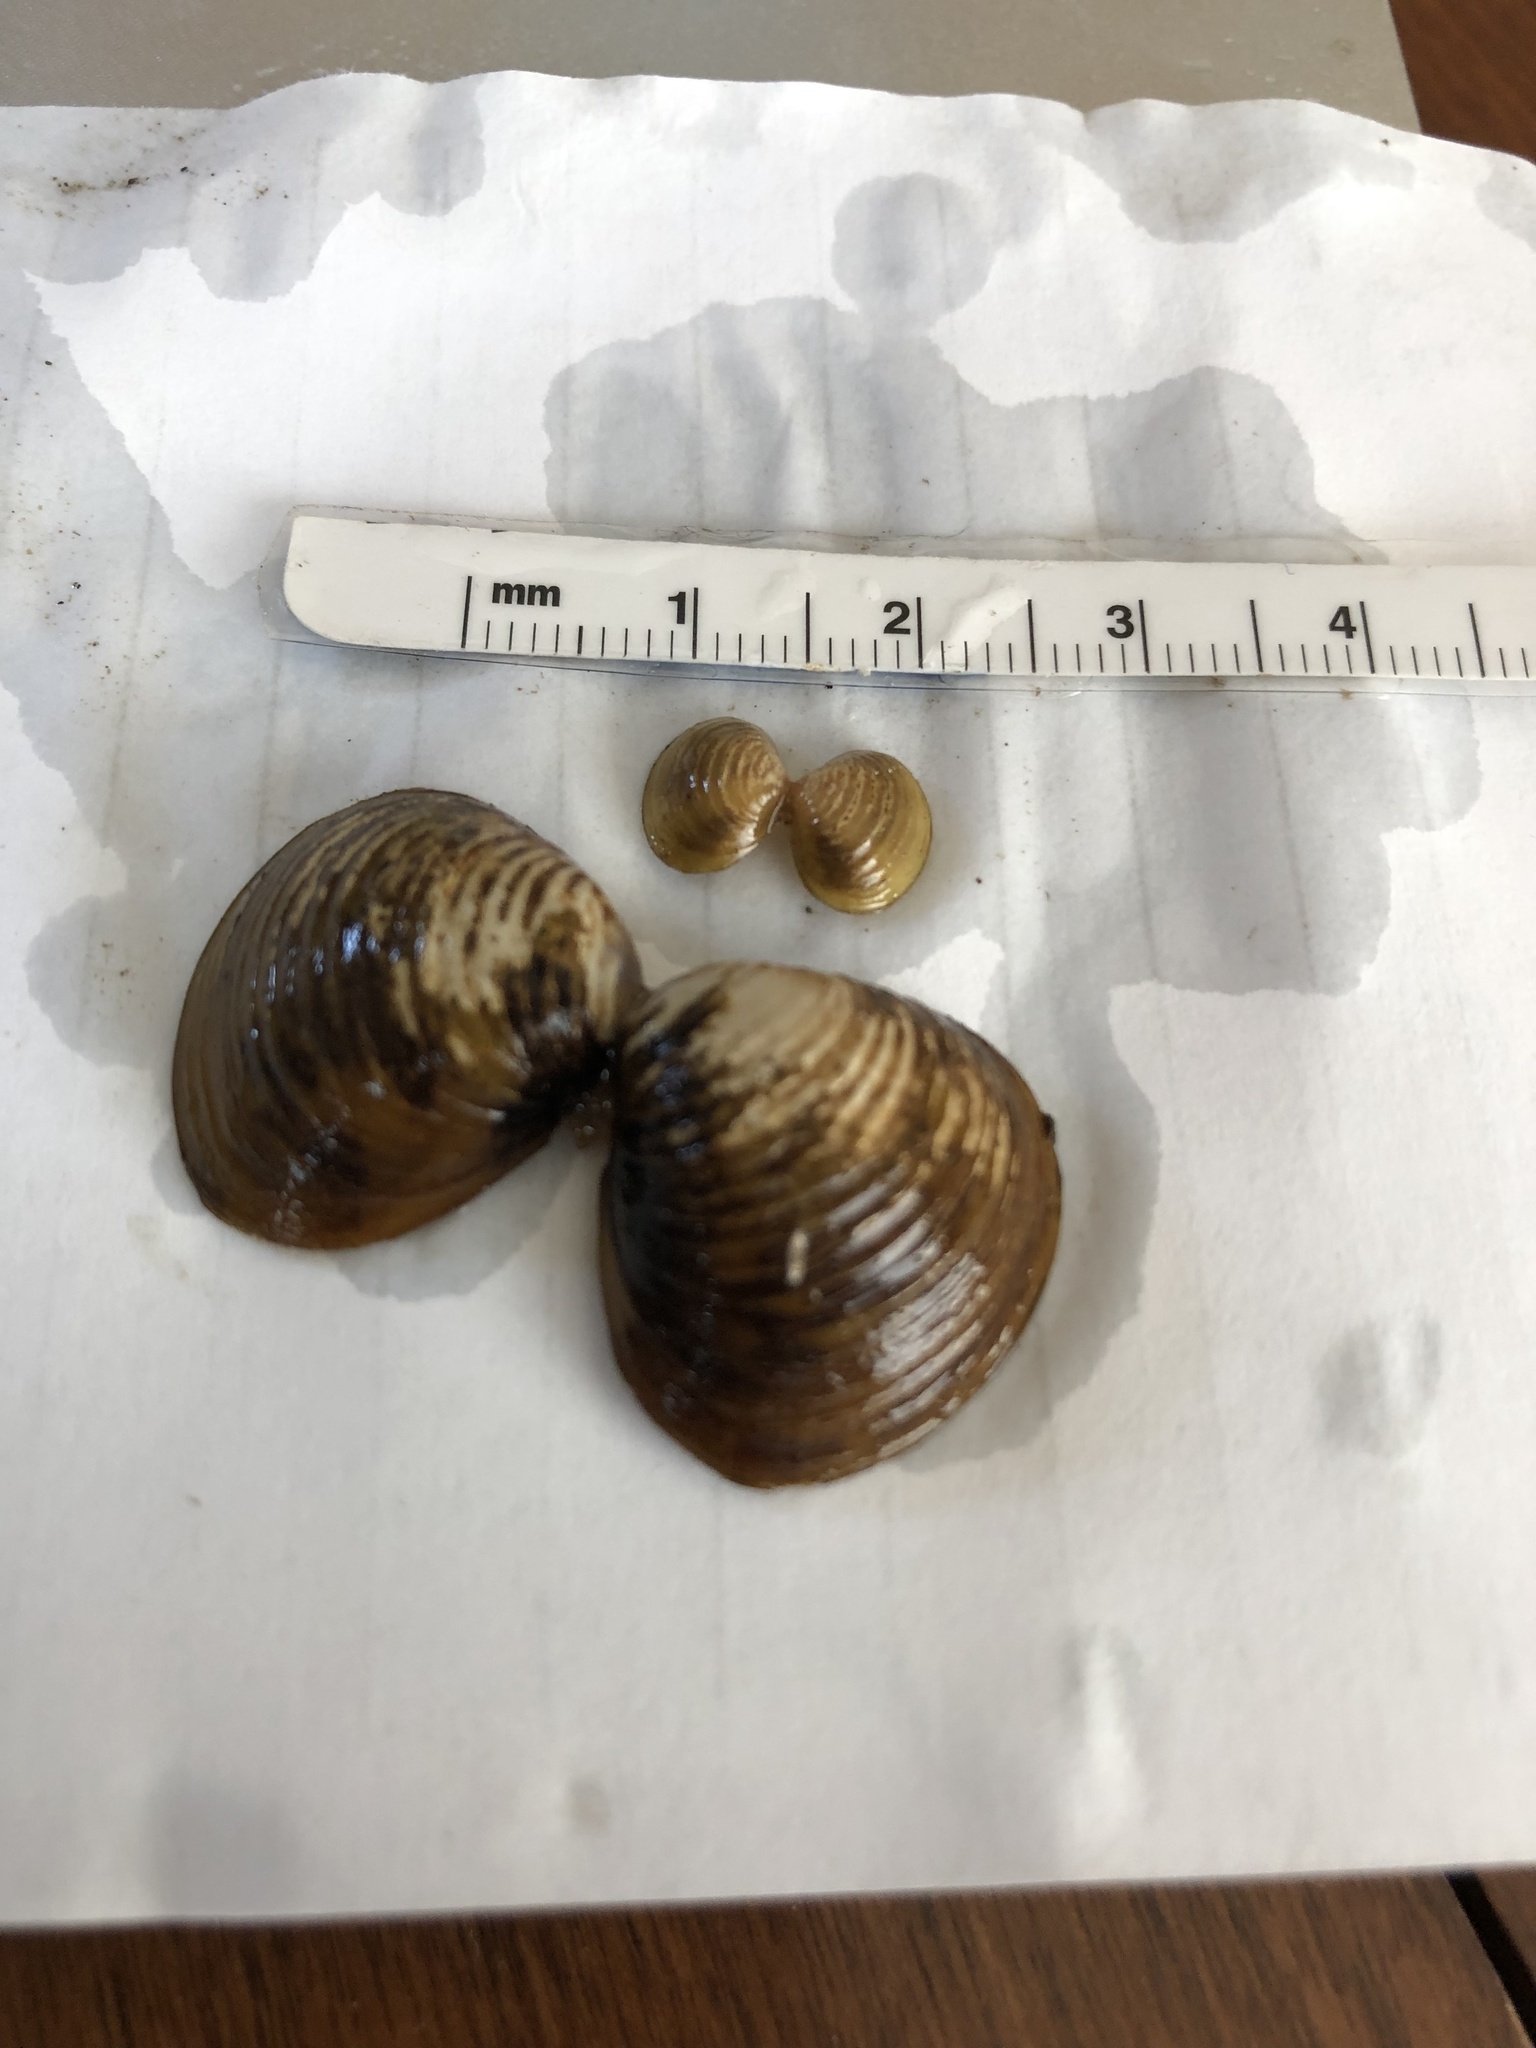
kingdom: Animalia
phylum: Mollusca
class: Bivalvia
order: Venerida
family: Cyrenidae
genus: Corbicula
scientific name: Corbicula fluminea
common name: Asian clam
